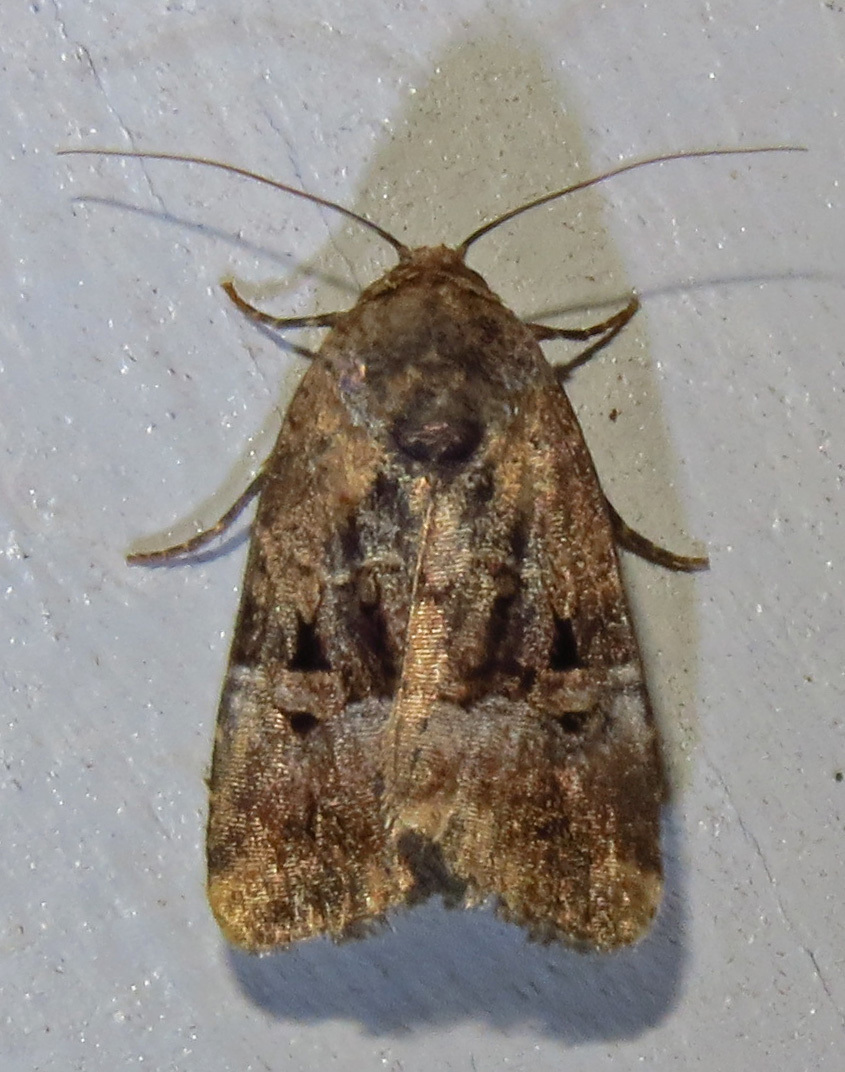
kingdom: Animalia
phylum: Arthropoda
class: Insecta
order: Lepidoptera
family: Noctuidae
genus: Elaphria
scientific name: Elaphria chalcedonia
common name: Chalcedony midget
